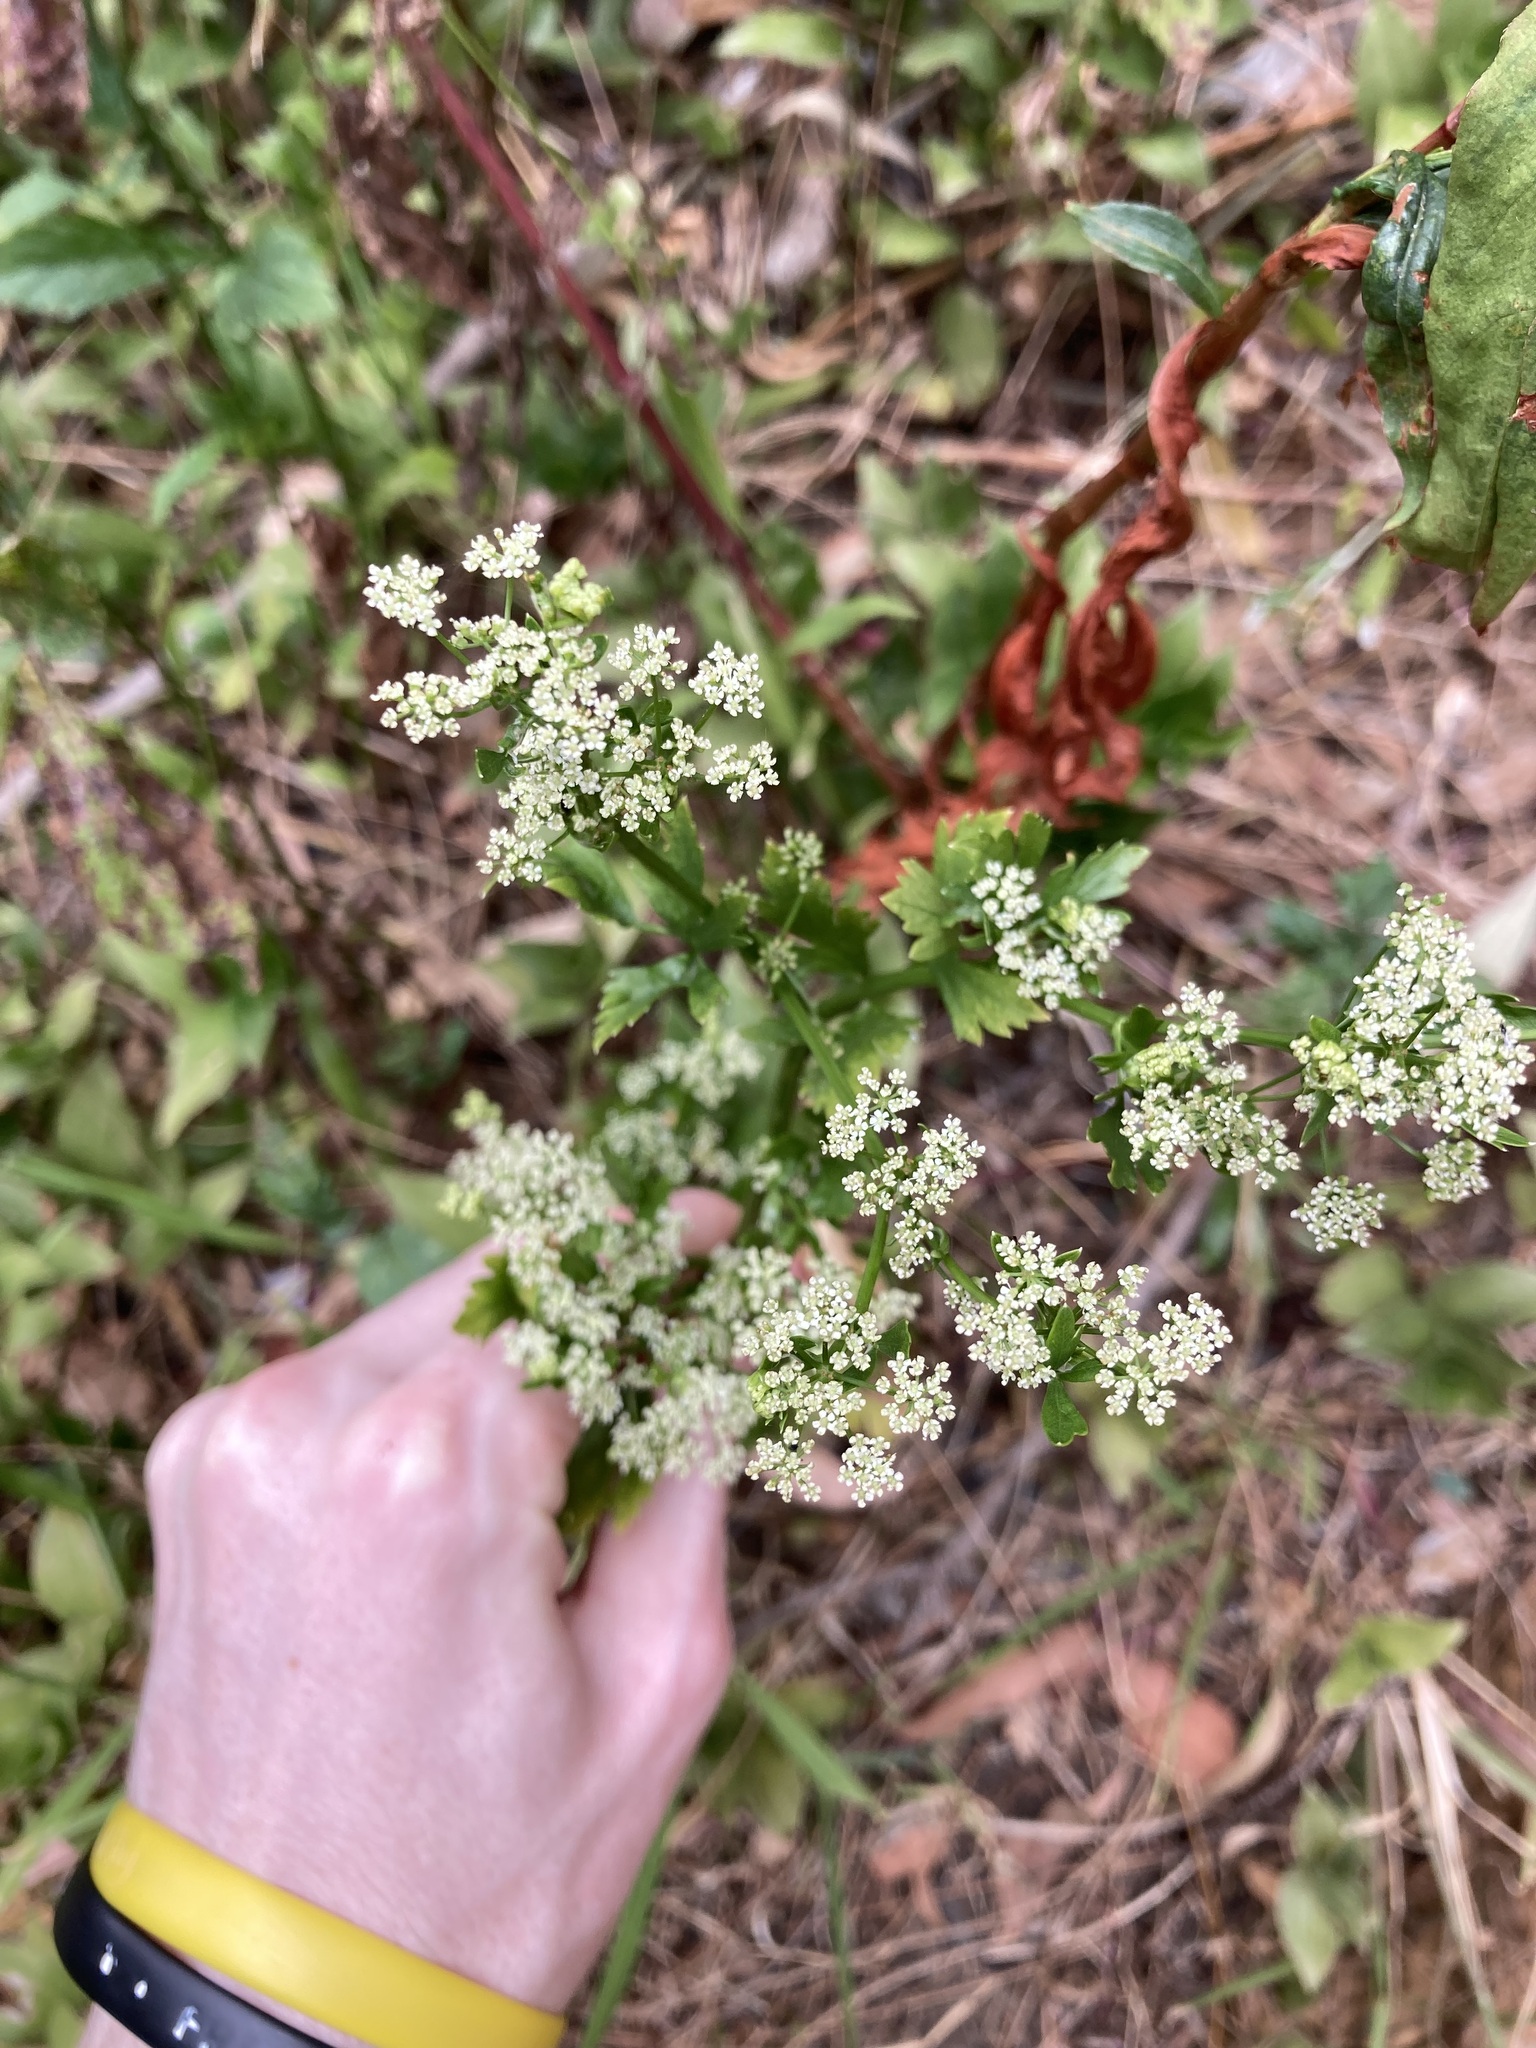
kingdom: Plantae
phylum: Tracheophyta
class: Magnoliopsida
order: Apiales
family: Apiaceae
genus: Apium
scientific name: Apium graveolens
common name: Wild celery
